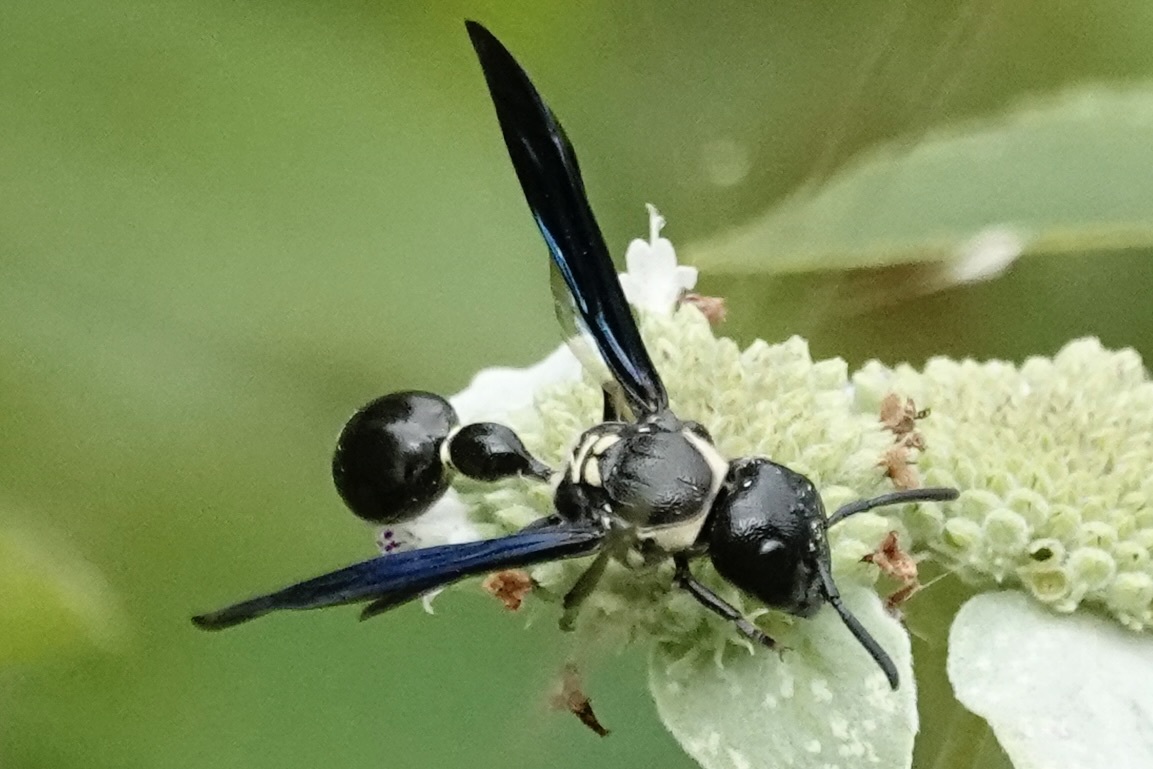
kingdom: Animalia
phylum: Arthropoda
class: Insecta
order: Hymenoptera
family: Eumenidae
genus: Zethus
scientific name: Zethus spinipes
